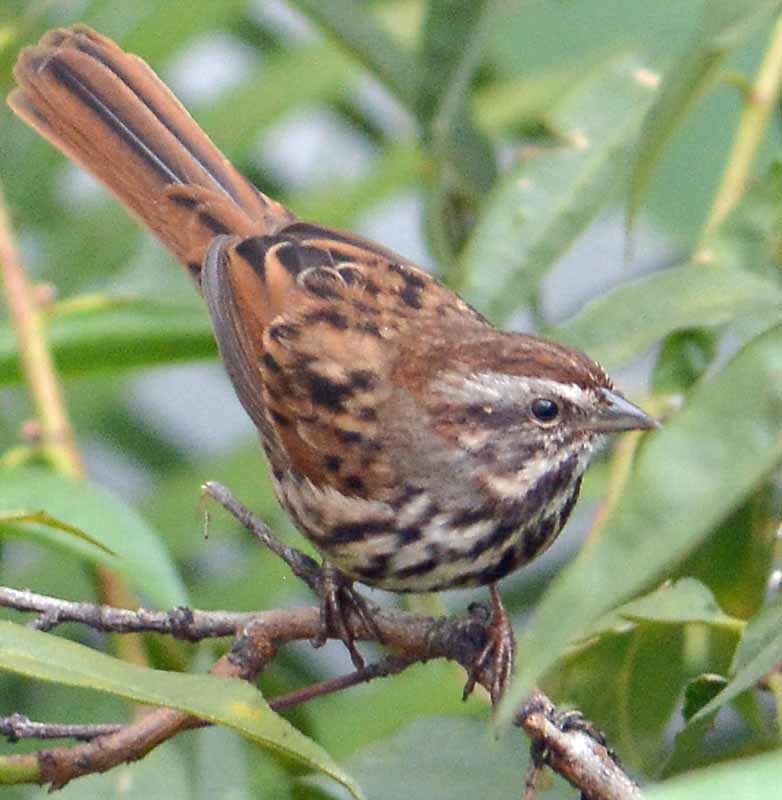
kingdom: Animalia
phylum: Chordata
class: Aves
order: Passeriformes
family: Passerellidae
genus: Melospiza
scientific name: Melospiza melodia
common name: Song sparrow
